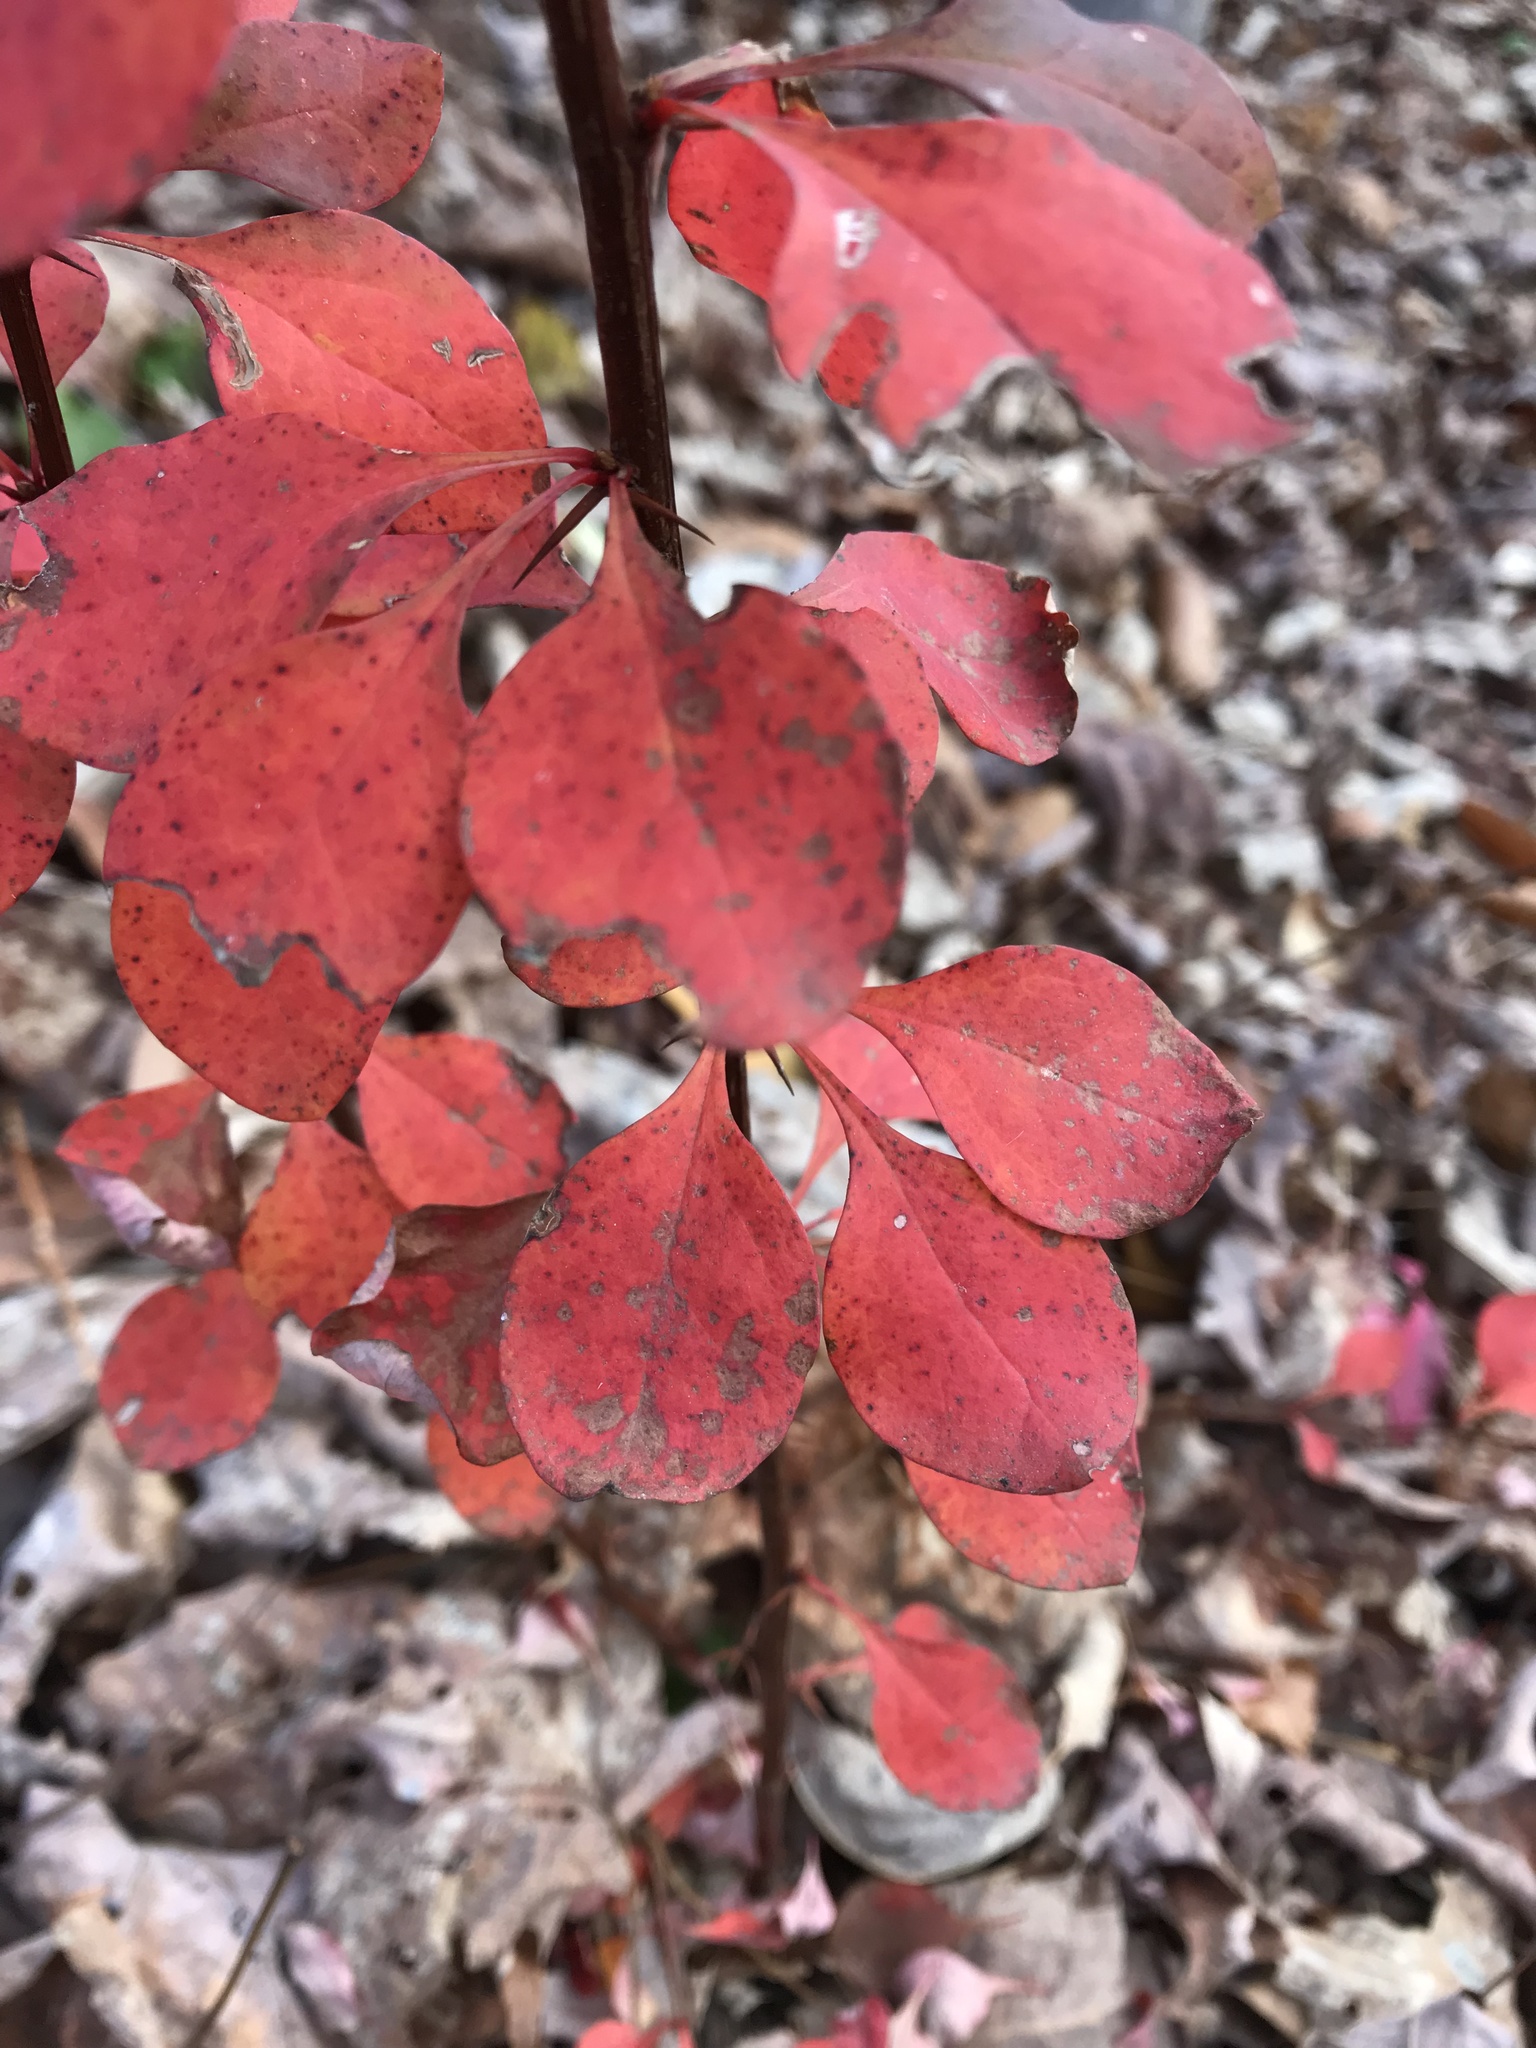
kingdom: Plantae
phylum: Tracheophyta
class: Magnoliopsida
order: Ranunculales
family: Berberidaceae
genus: Berberis
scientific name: Berberis thunbergii
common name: Japanese barberry
